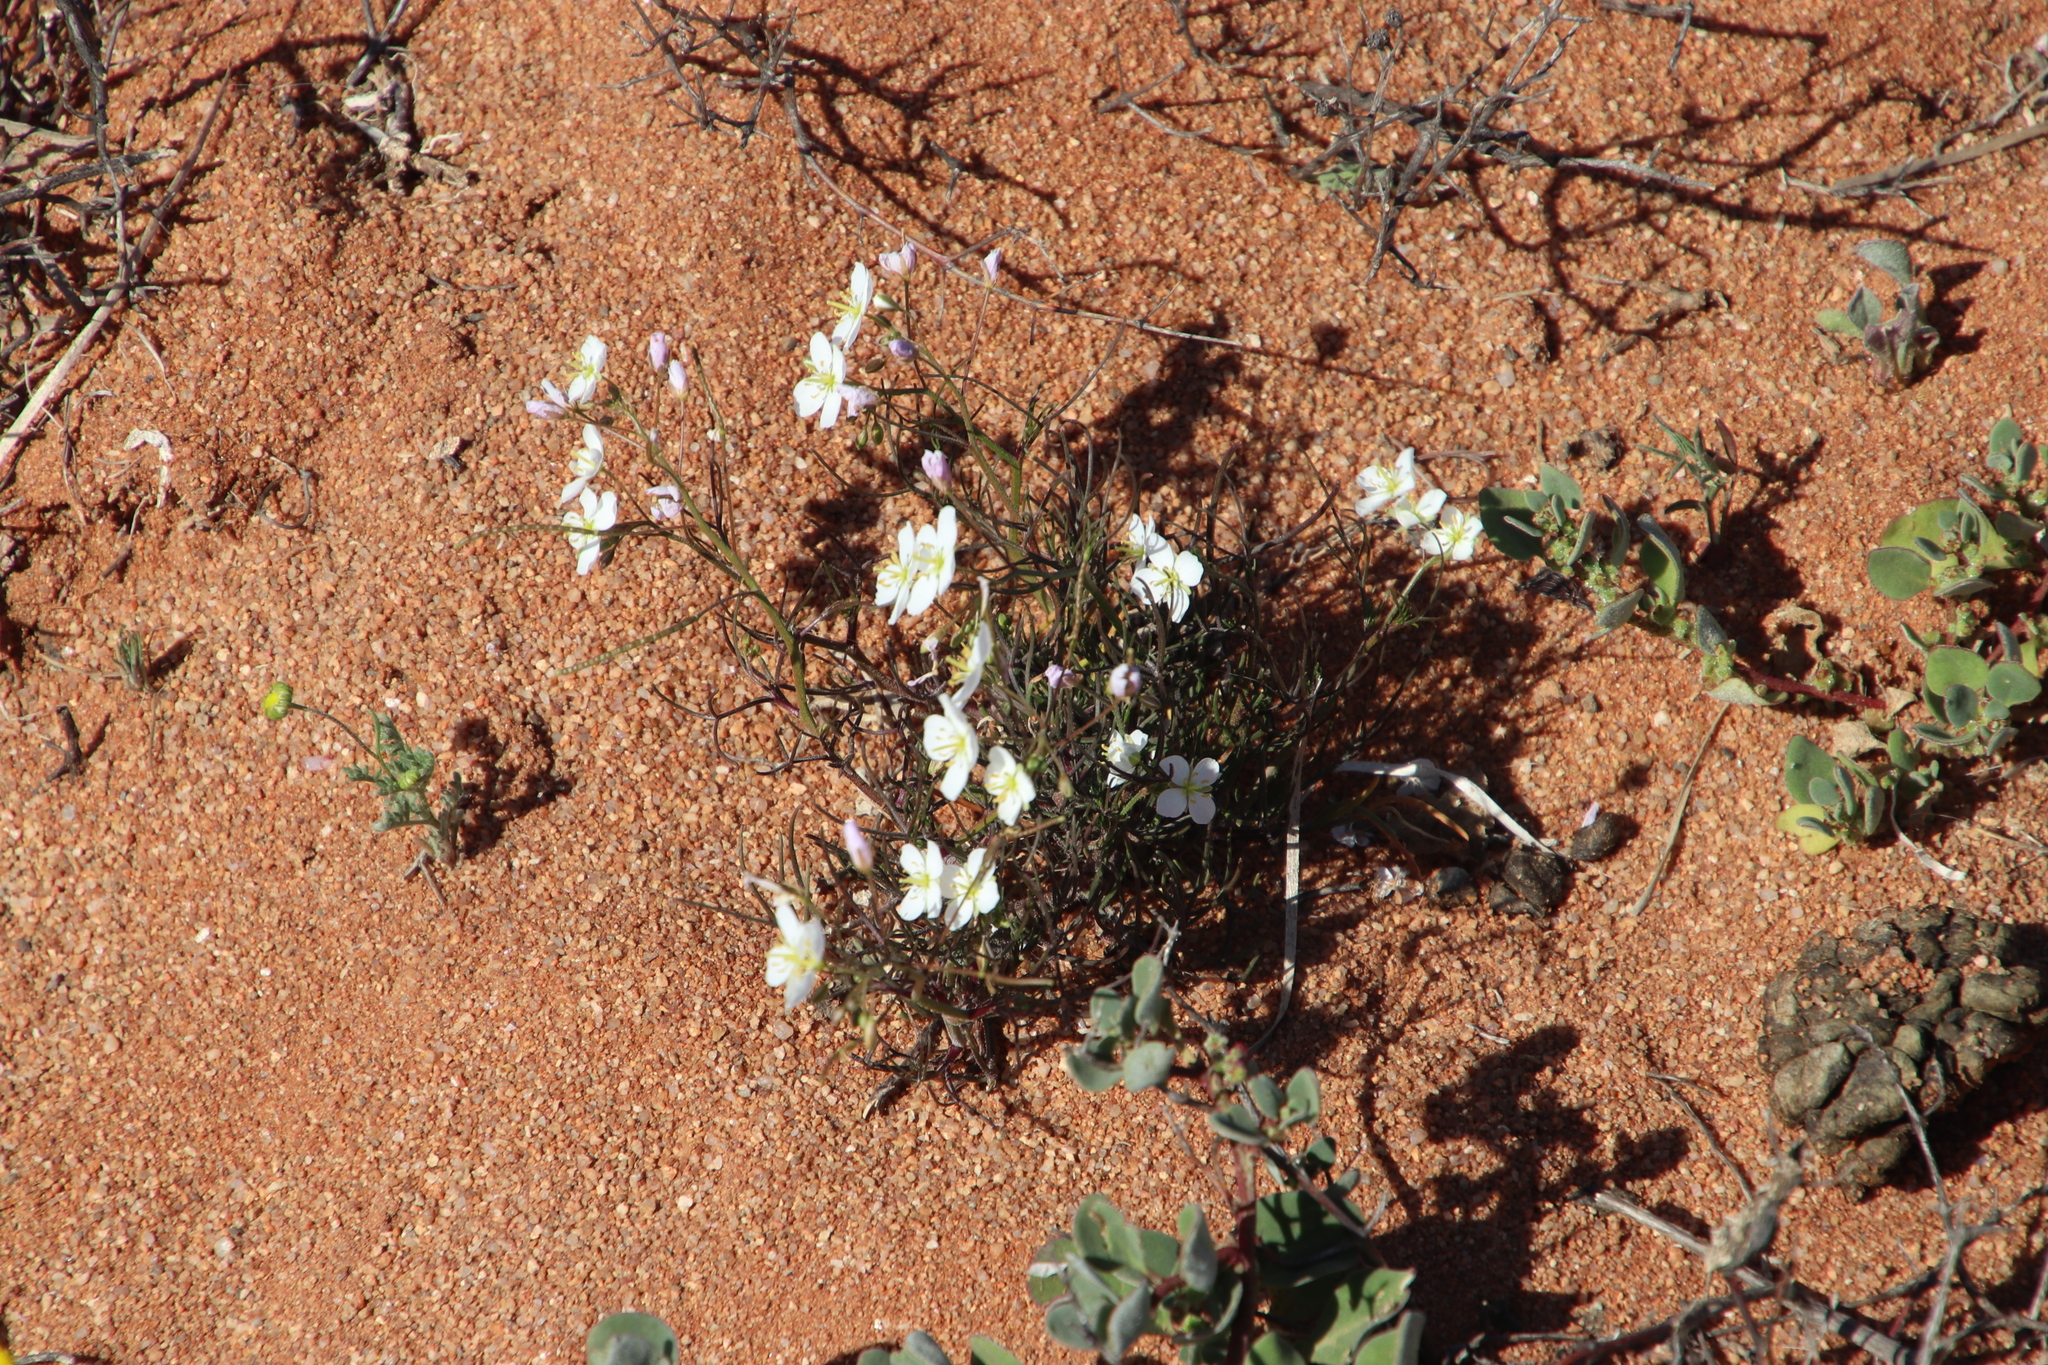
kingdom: Plantae
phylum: Tracheophyta
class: Magnoliopsida
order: Brassicales
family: Brassicaceae
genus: Heliophila
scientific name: Heliophila variabilis
